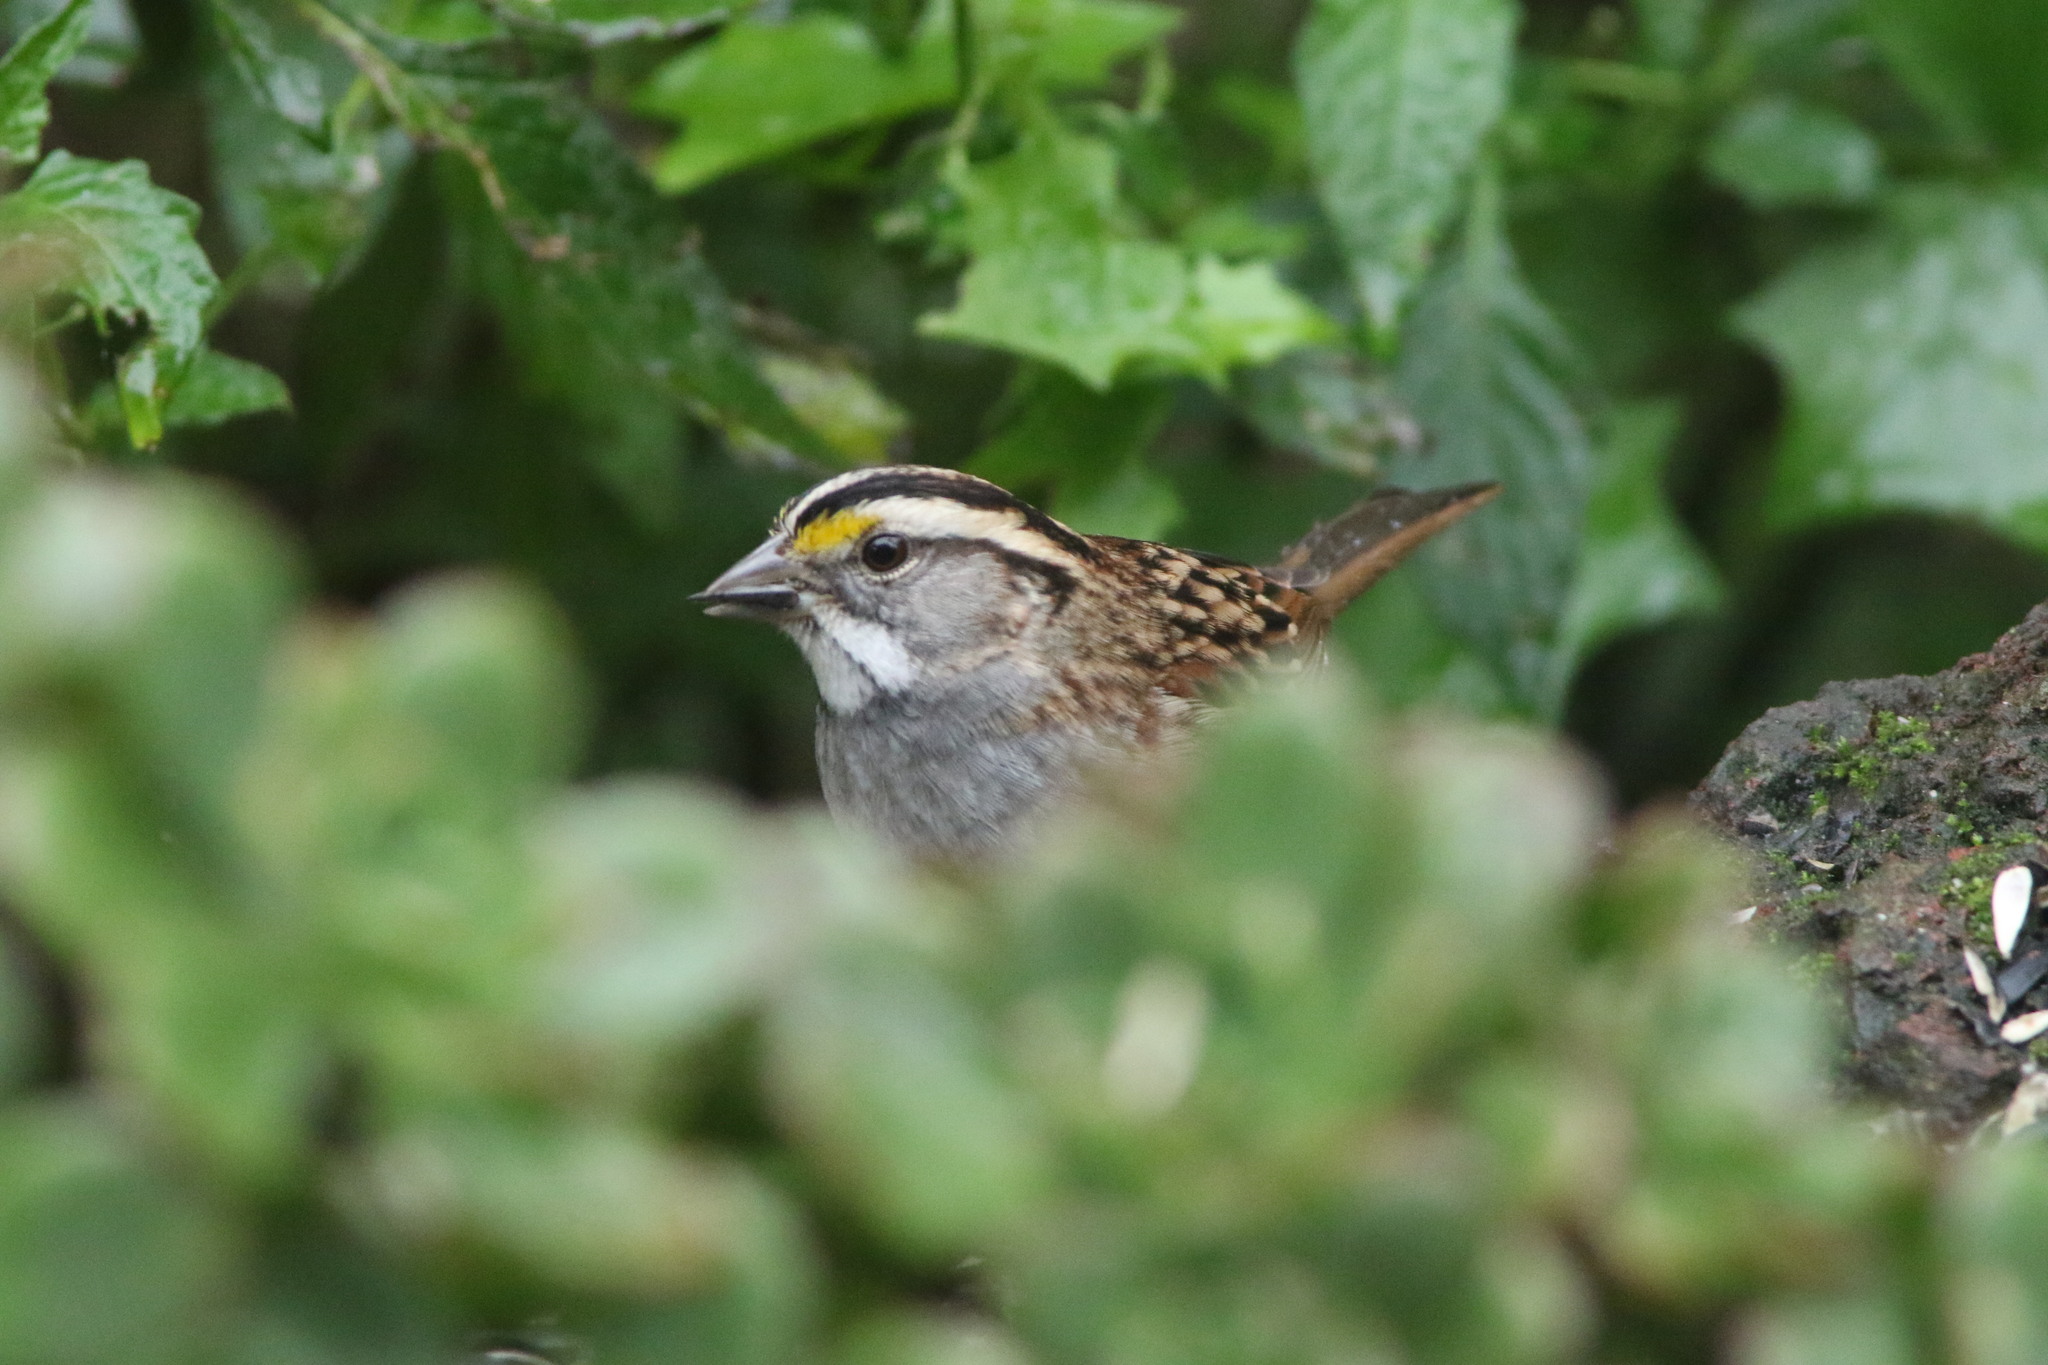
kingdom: Animalia
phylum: Chordata
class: Aves
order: Passeriformes
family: Passerellidae
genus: Zonotrichia
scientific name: Zonotrichia albicollis
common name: White-throated sparrow
